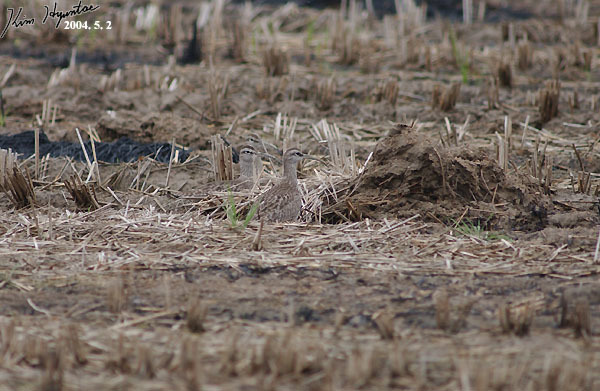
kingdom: Animalia
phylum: Chordata
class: Aves
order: Charadriiformes
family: Scolopacidae
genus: Numenius
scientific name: Numenius phaeopus
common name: Whimbrel
